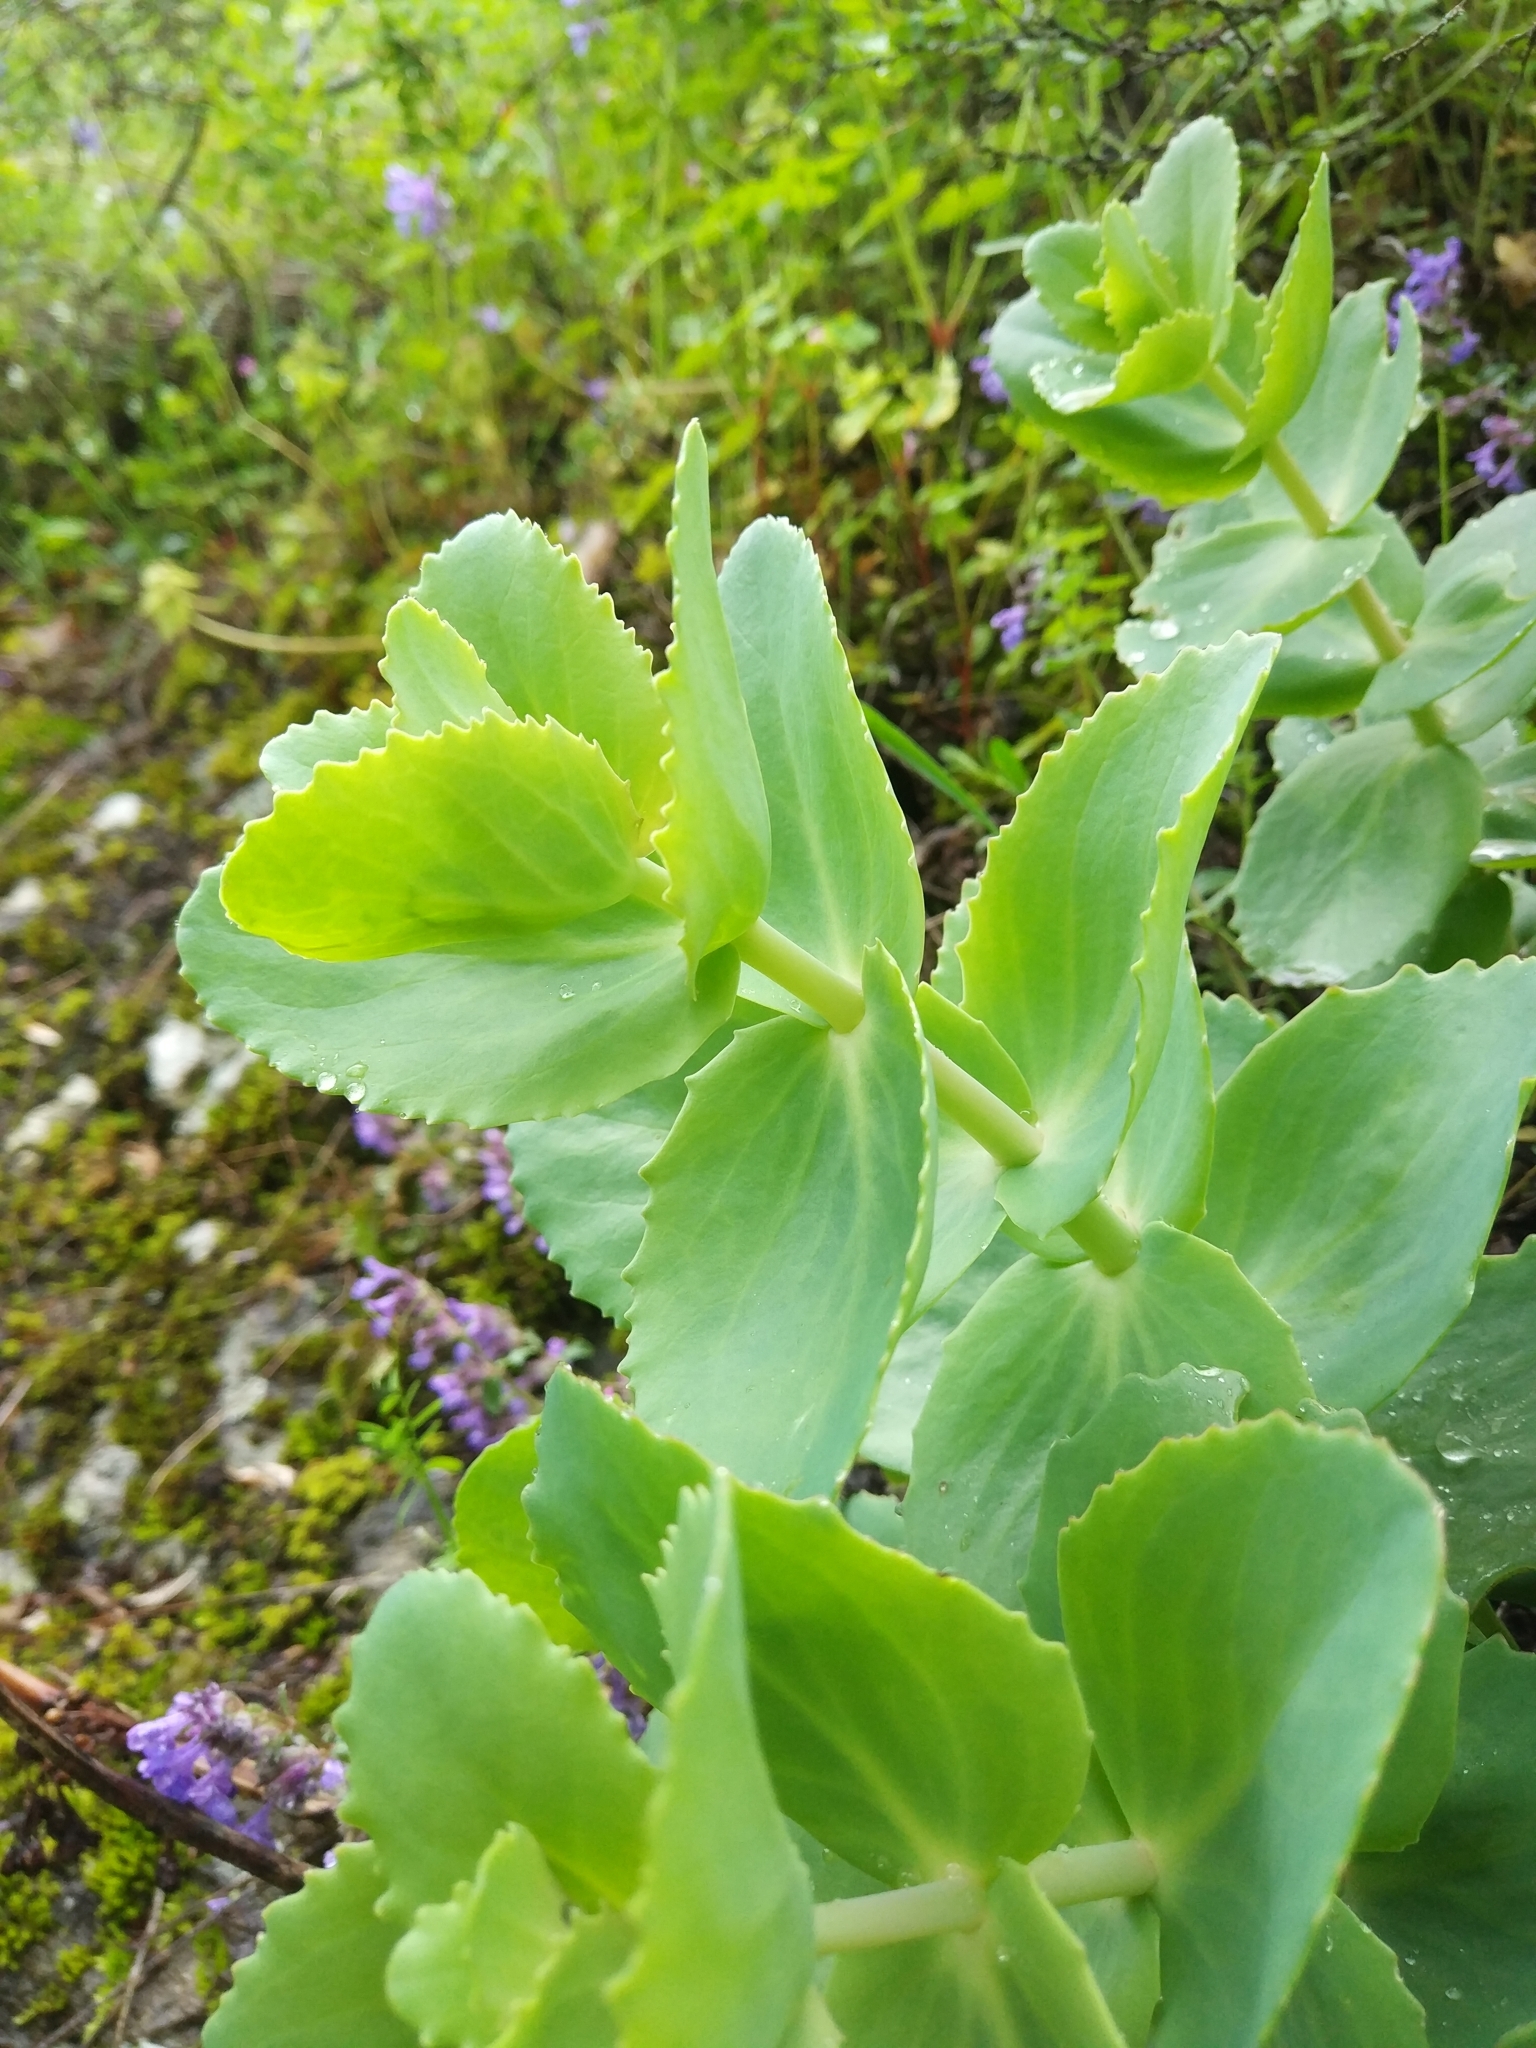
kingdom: Plantae
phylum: Tracheophyta
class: Magnoliopsida
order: Saxifragales
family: Crassulaceae
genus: Hylotelephium
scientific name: Hylotelephium maximum
